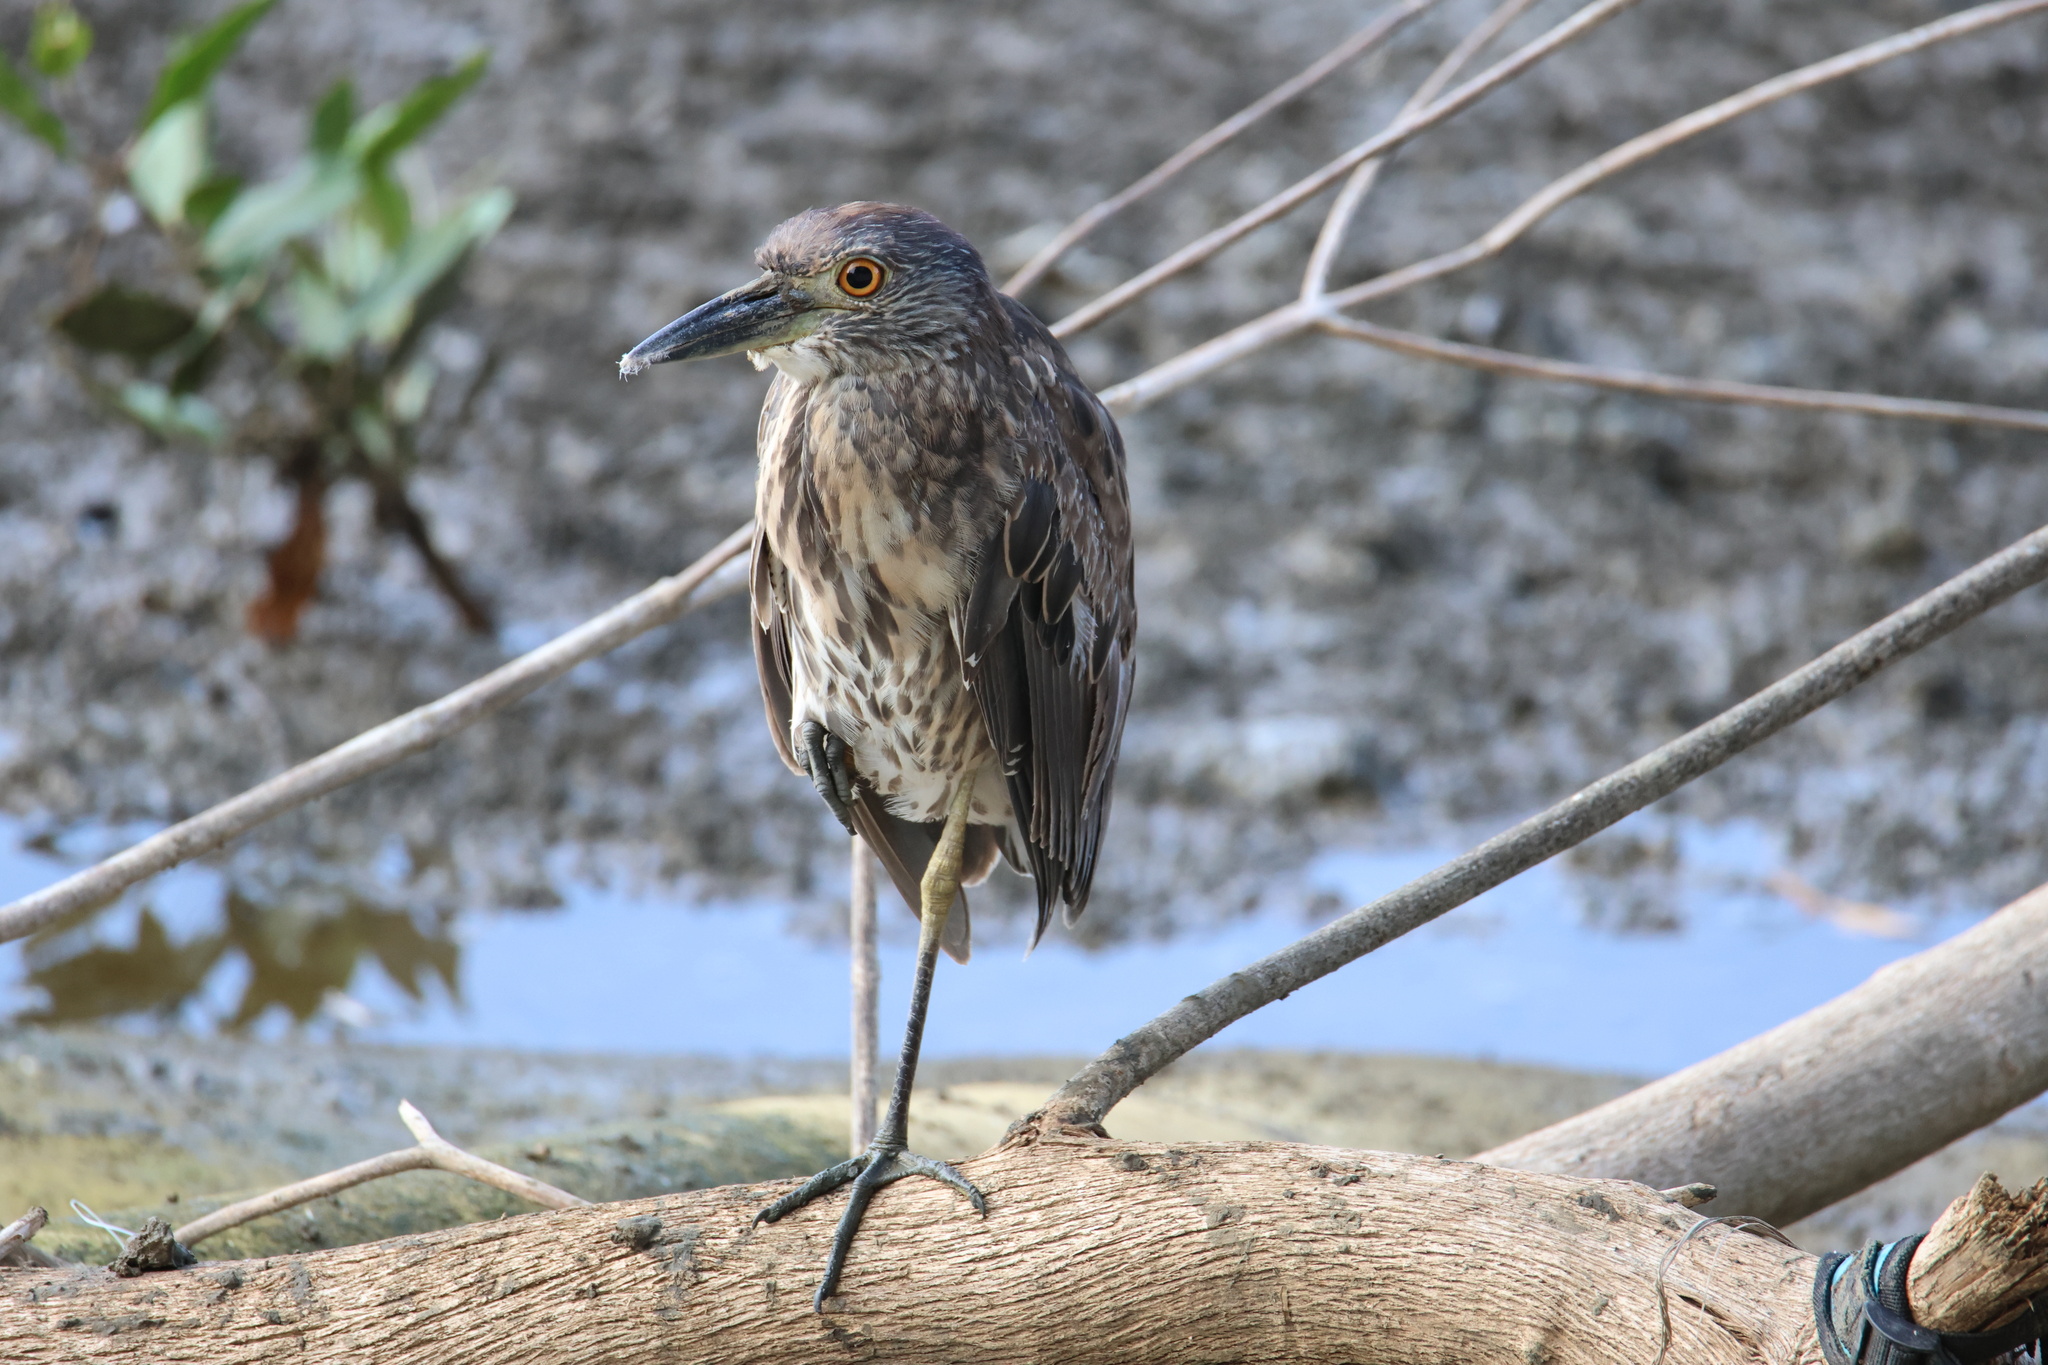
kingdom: Animalia
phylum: Chordata
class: Aves
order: Pelecaniformes
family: Ardeidae
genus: Nyctanassa
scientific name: Nyctanassa violacea
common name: Yellow-crowned night heron
